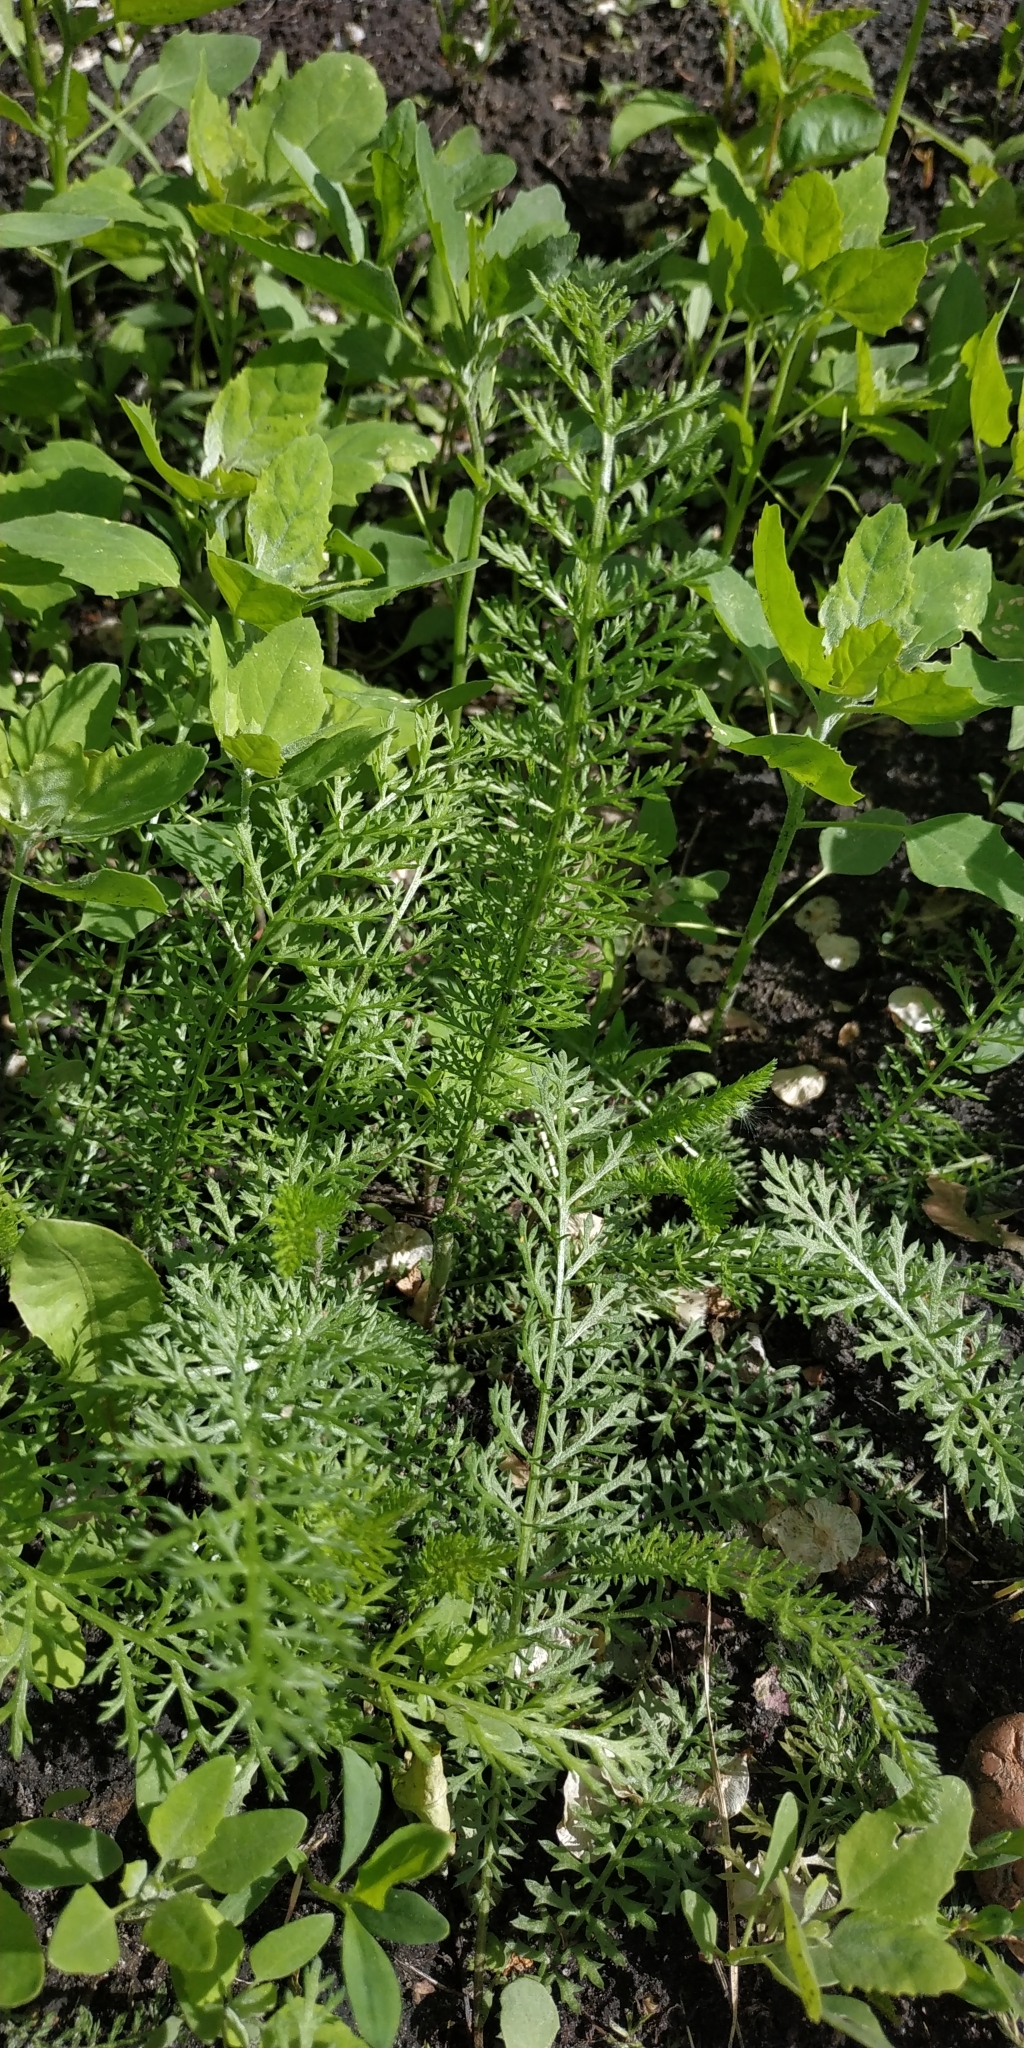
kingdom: Plantae
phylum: Tracheophyta
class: Magnoliopsida
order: Asterales
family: Asteraceae
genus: Achillea
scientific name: Achillea millefolium
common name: Yarrow
